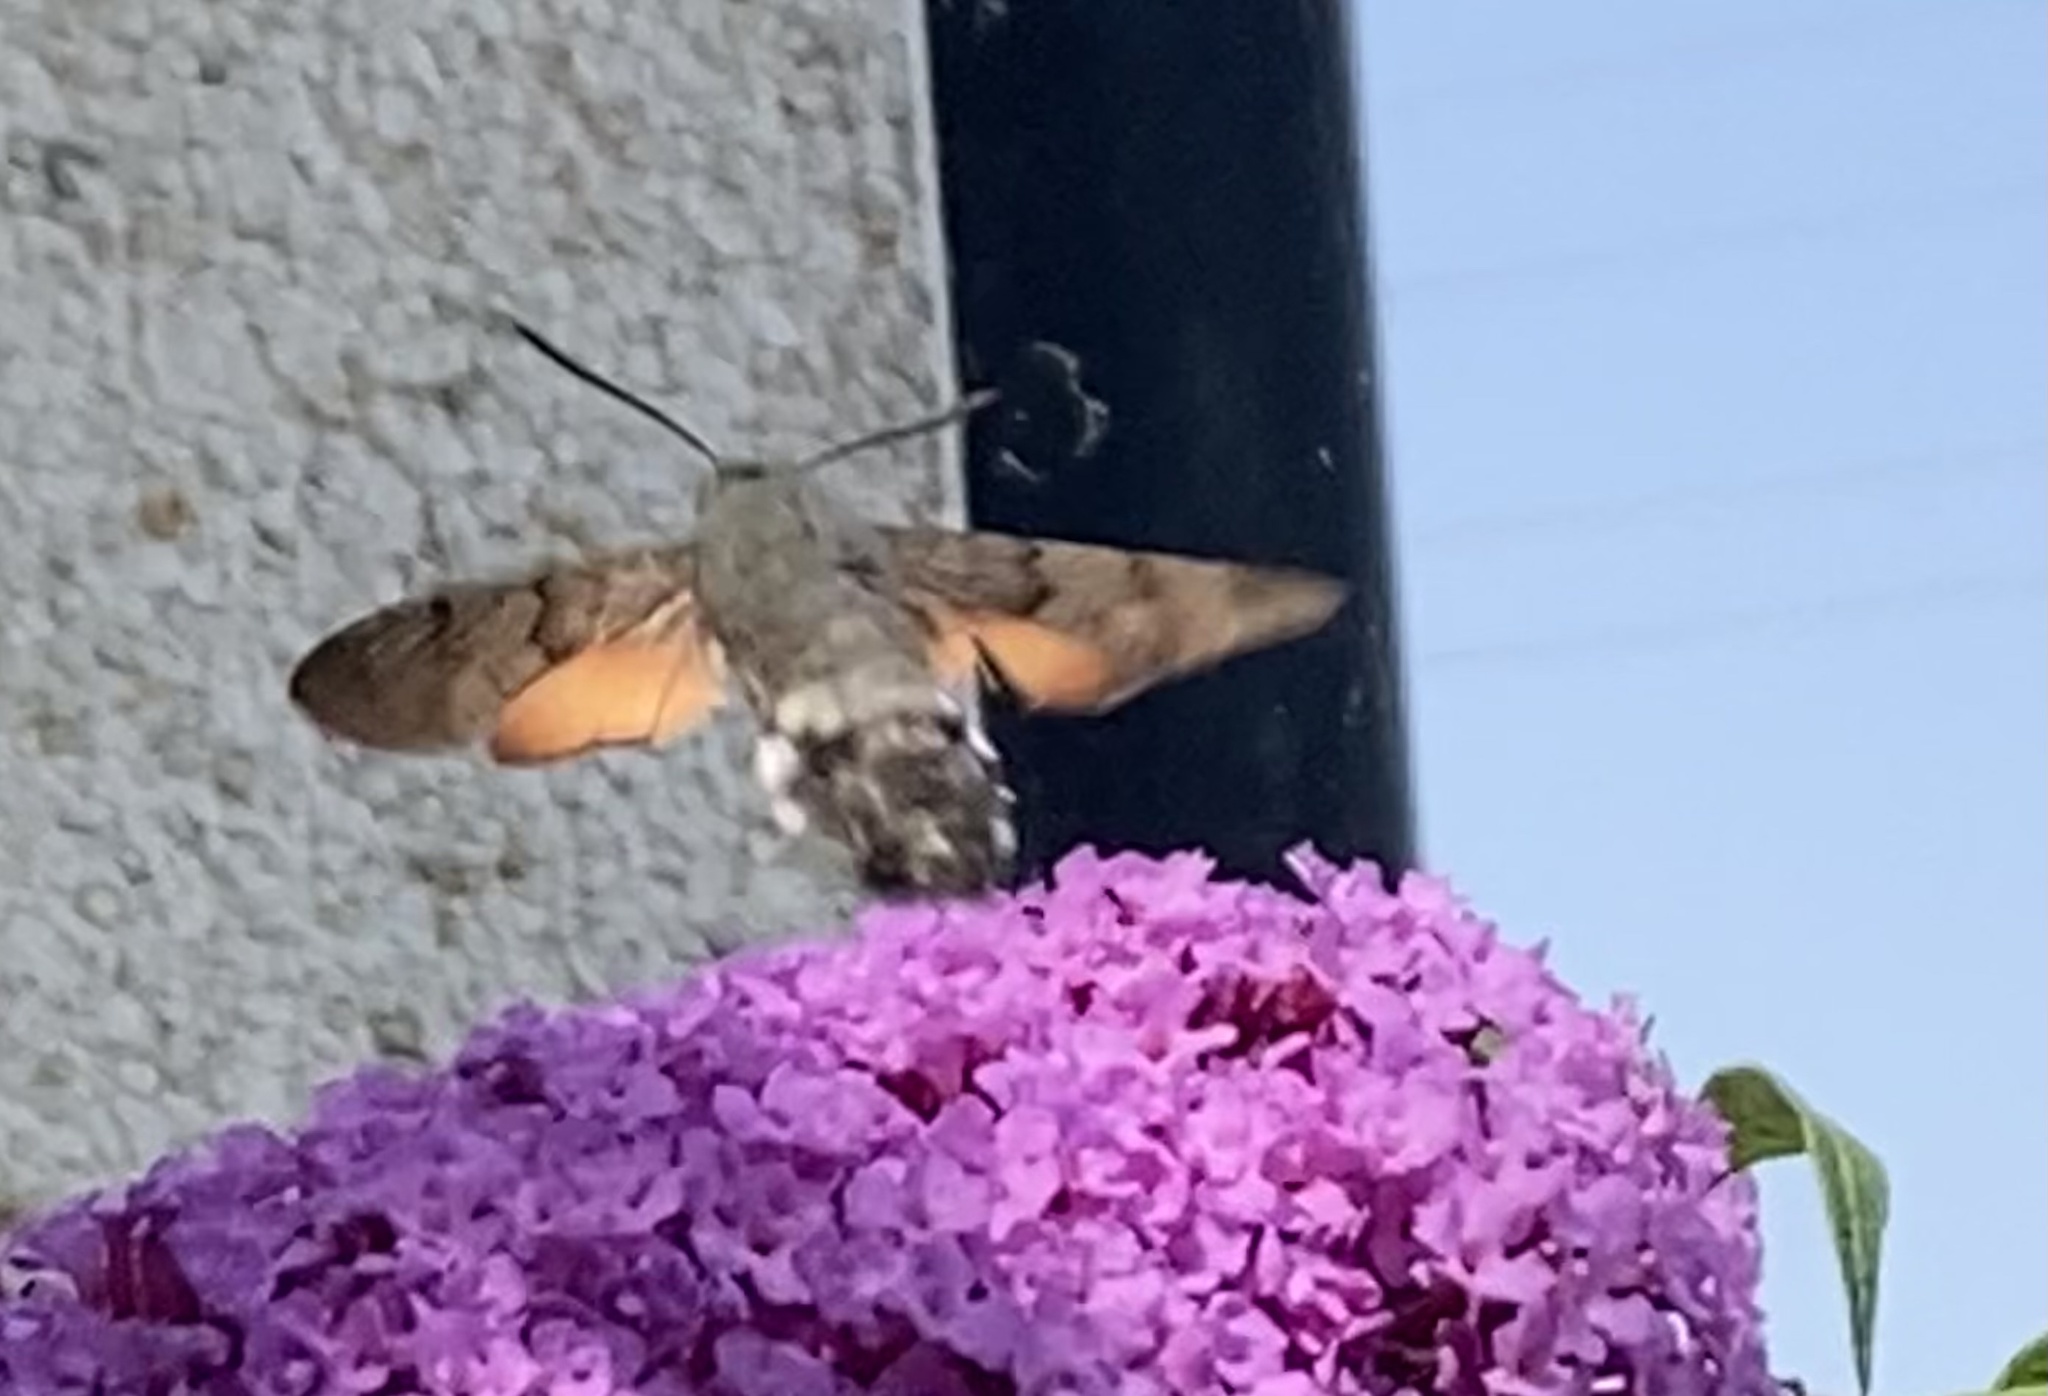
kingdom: Animalia
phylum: Arthropoda
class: Insecta
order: Lepidoptera
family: Sphingidae
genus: Macroglossum
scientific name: Macroglossum stellatarum
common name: Humming-bird hawk-moth
